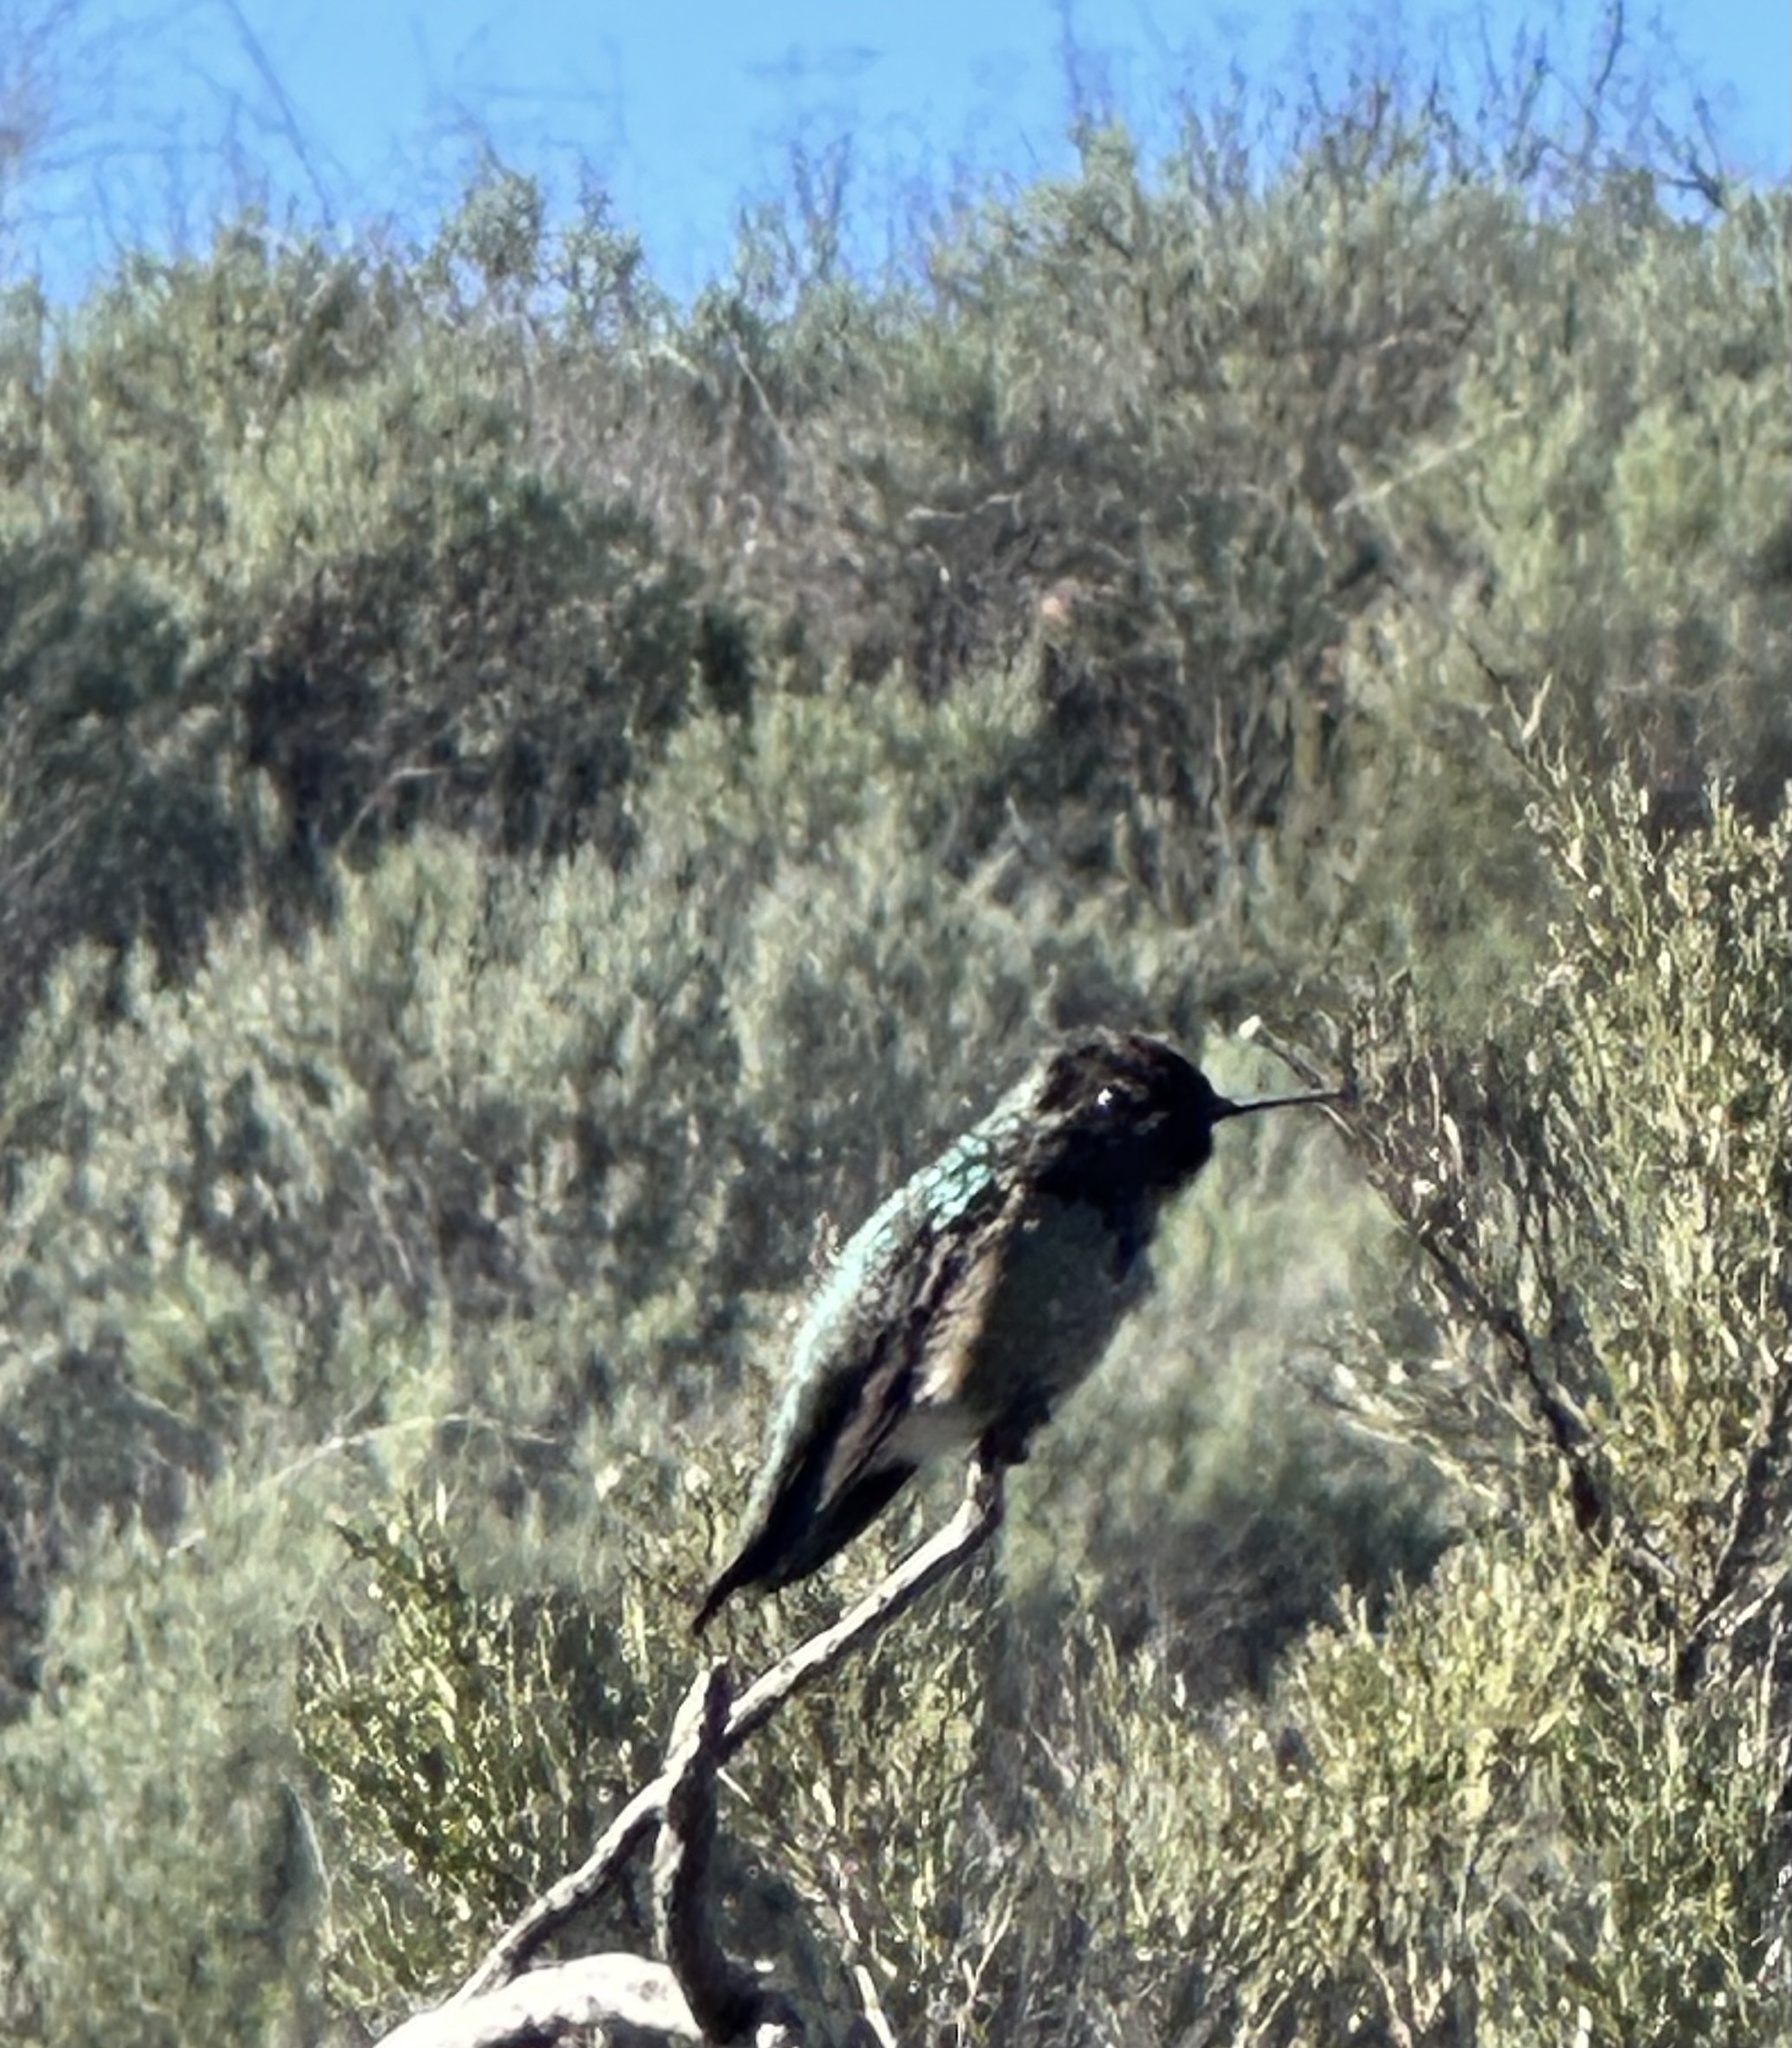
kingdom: Animalia
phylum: Chordata
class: Aves
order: Apodiformes
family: Trochilidae
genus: Calypte
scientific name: Calypte anna
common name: Anna's hummingbird
